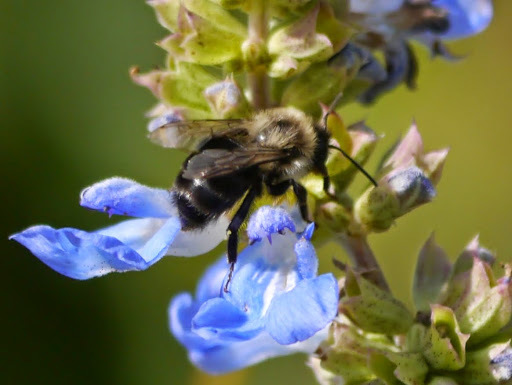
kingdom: Animalia
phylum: Arthropoda
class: Insecta
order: Hymenoptera
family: Apidae
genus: Bombus
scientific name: Bombus impatiens
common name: Common eastern bumble bee
